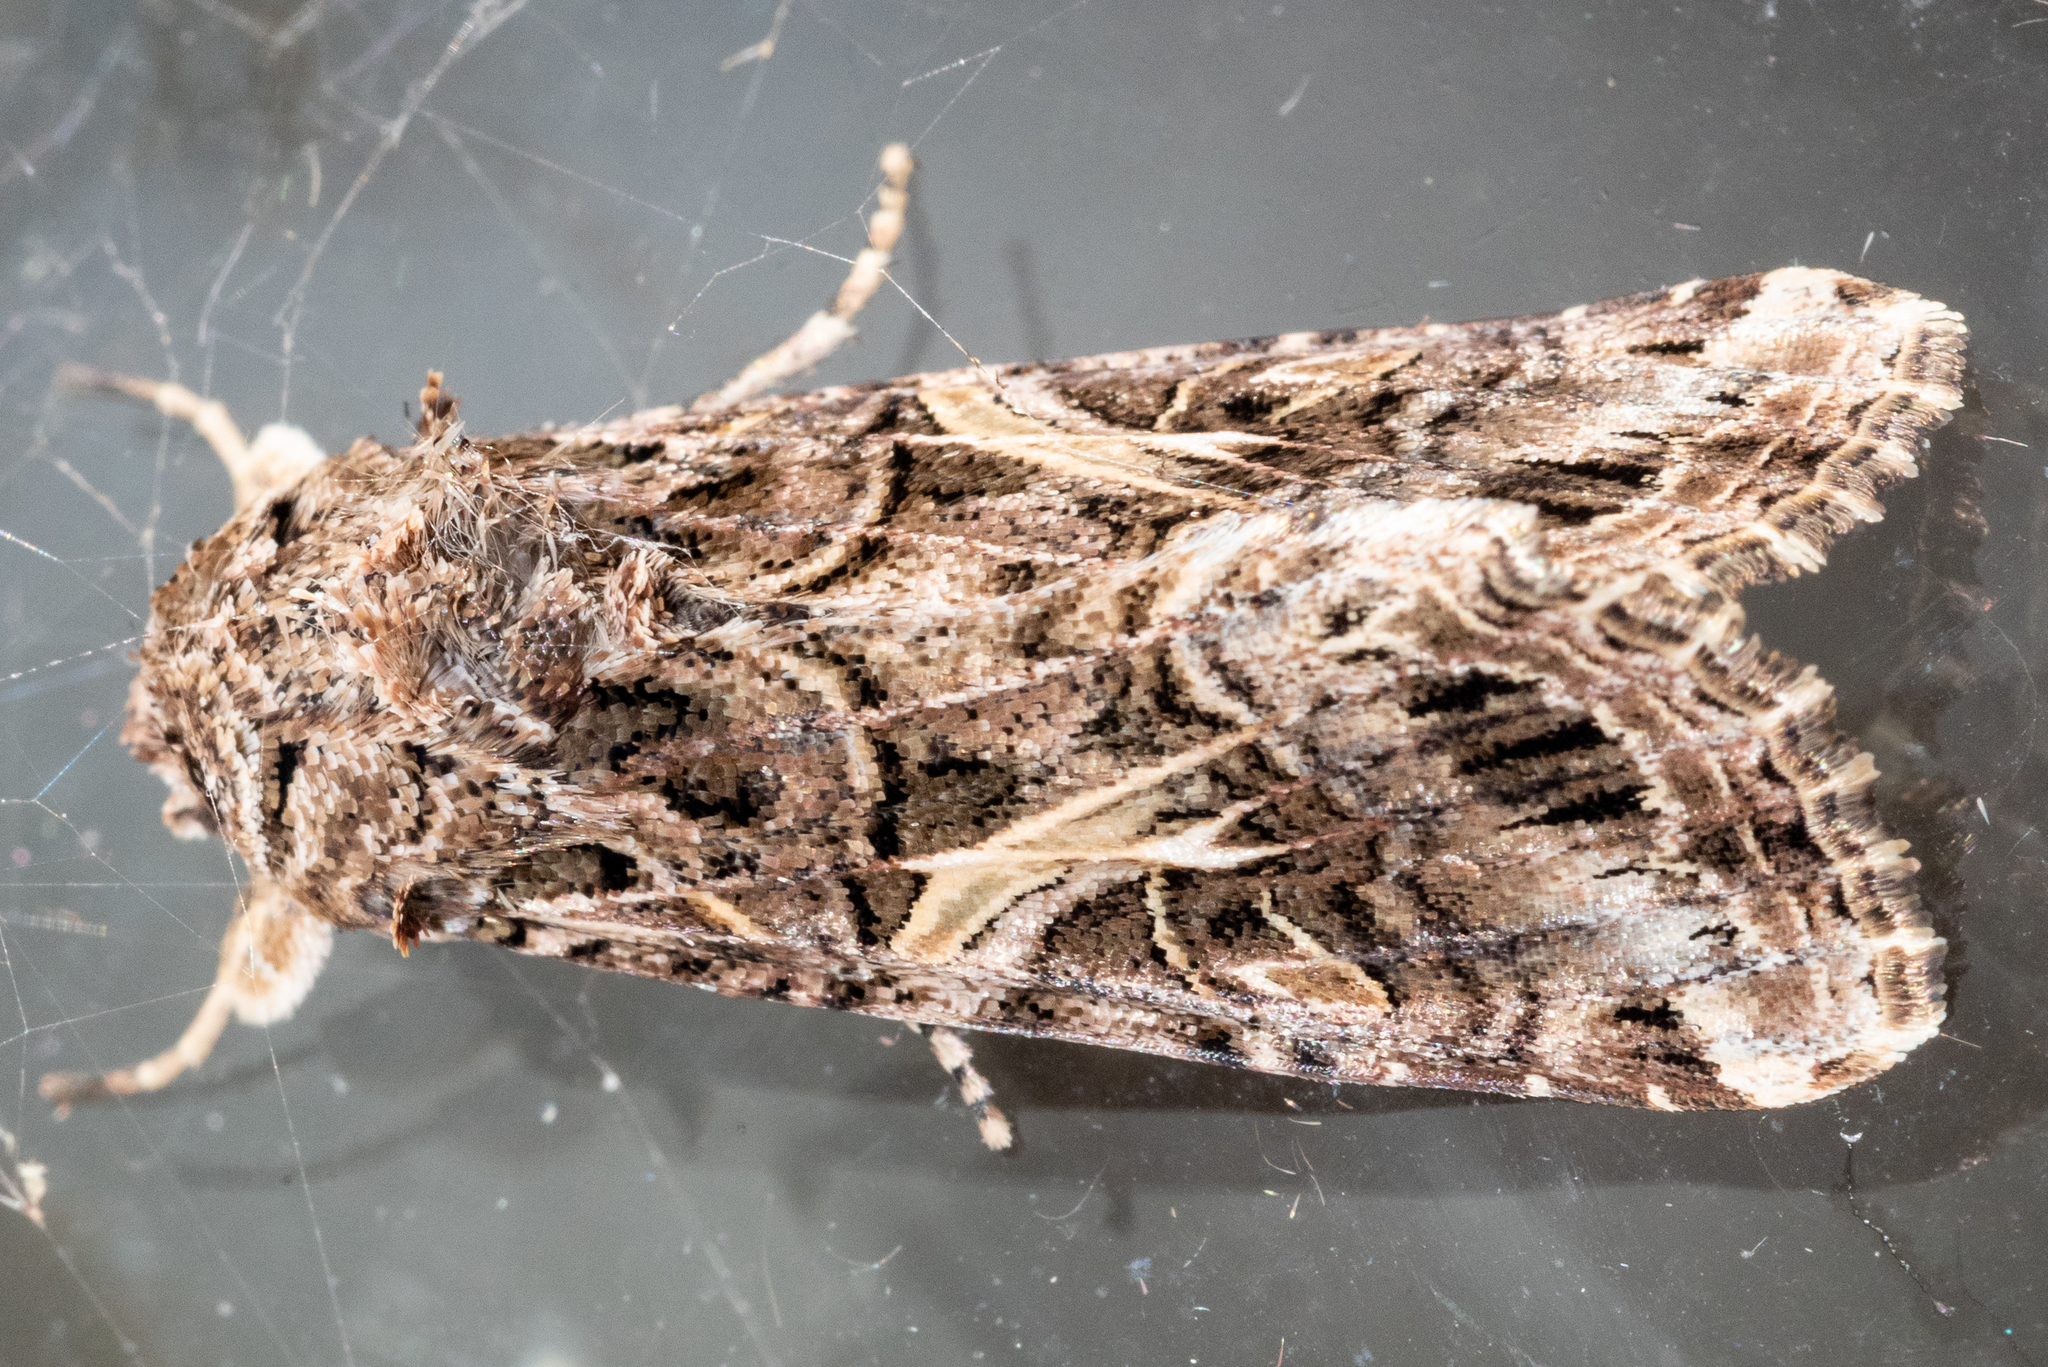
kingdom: Animalia
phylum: Arthropoda
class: Insecta
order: Lepidoptera
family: Noctuidae
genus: Spodoptera
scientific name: Spodoptera ornithogalli
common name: Yellow-striped armyworm
